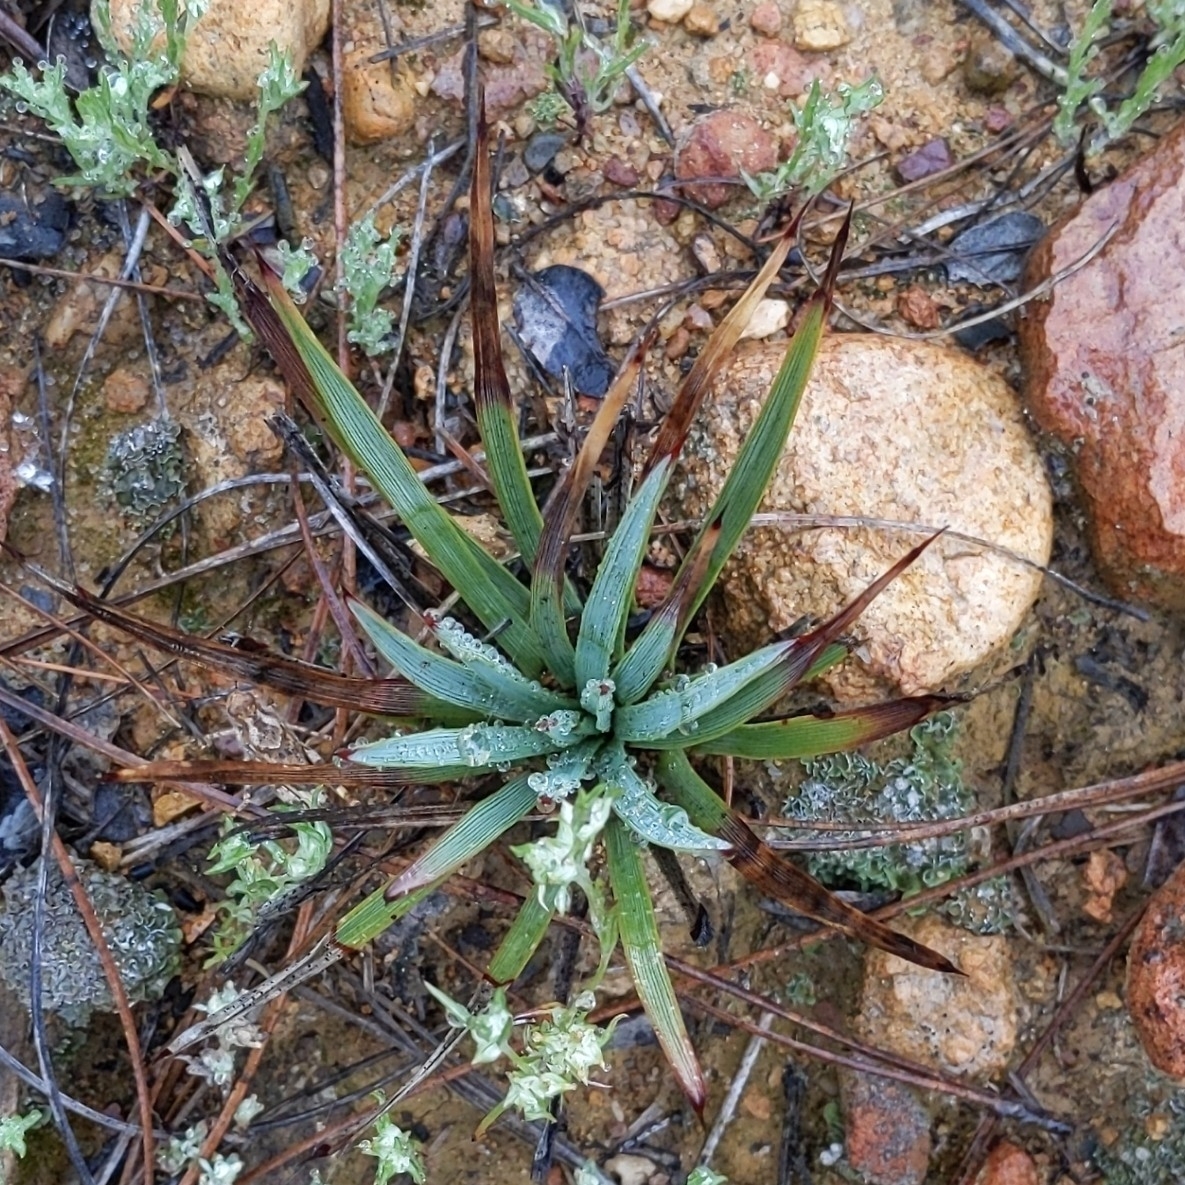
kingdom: Plantae
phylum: Tracheophyta
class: Liliopsida
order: Asparagales
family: Asparagaceae
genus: Hesperoyucca
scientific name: Hesperoyucca whipplei
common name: Our lord's-candle
